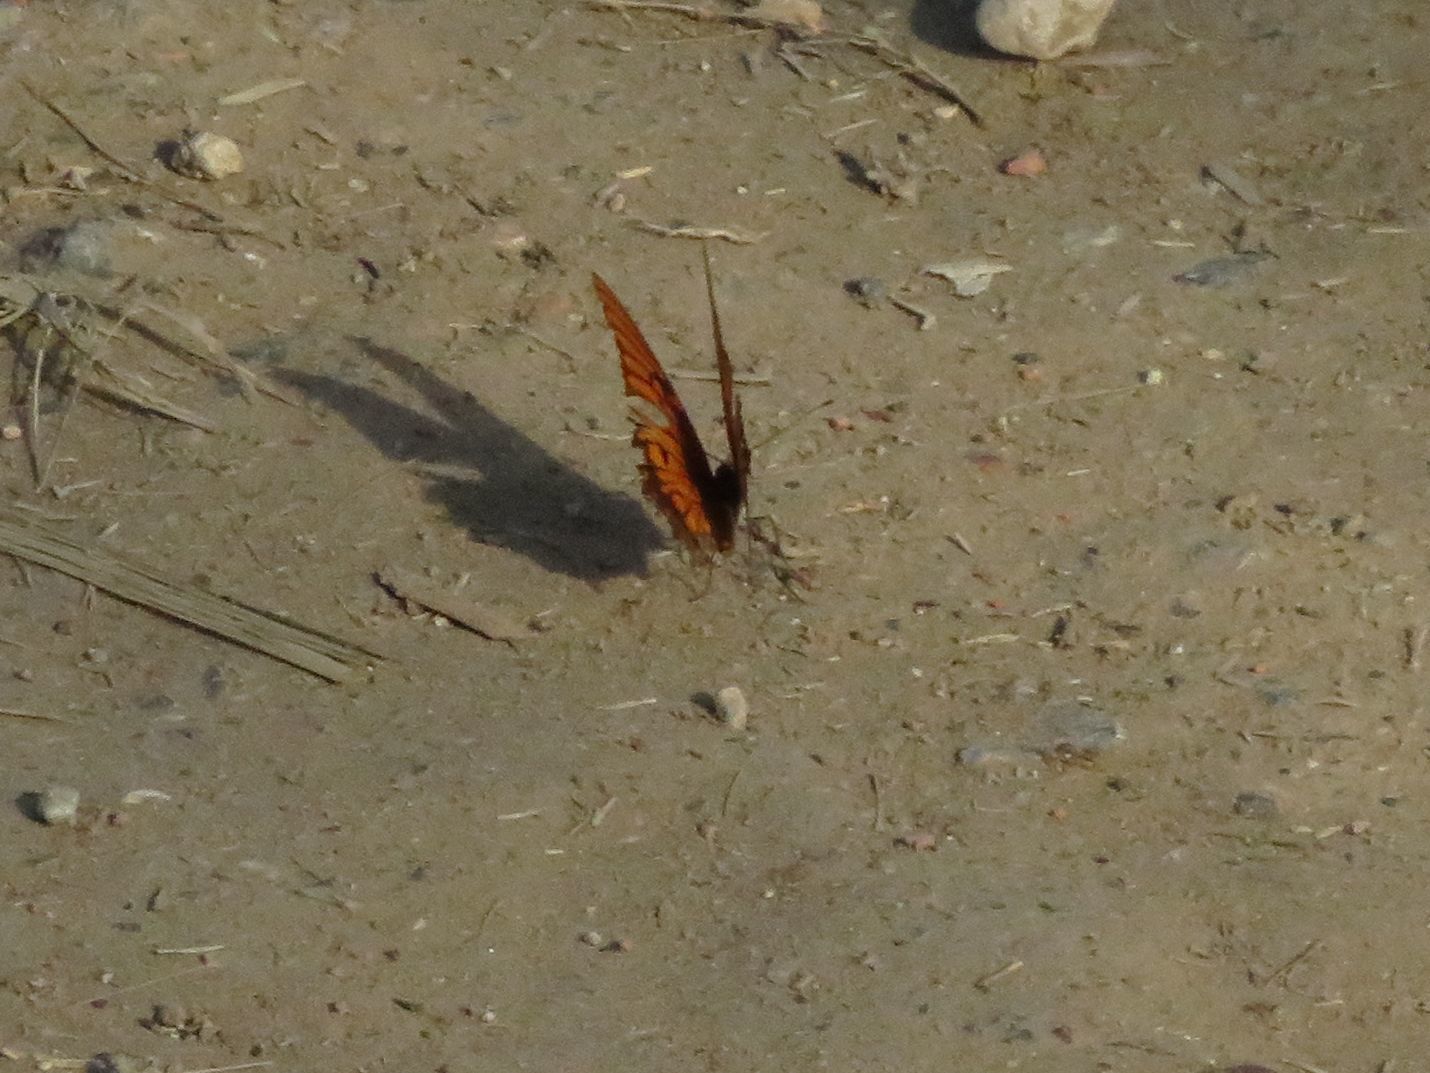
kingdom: Animalia
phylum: Arthropoda
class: Insecta
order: Lepidoptera
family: Nymphalidae
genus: Dione
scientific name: Dione moneta
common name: Mexican silverspot
